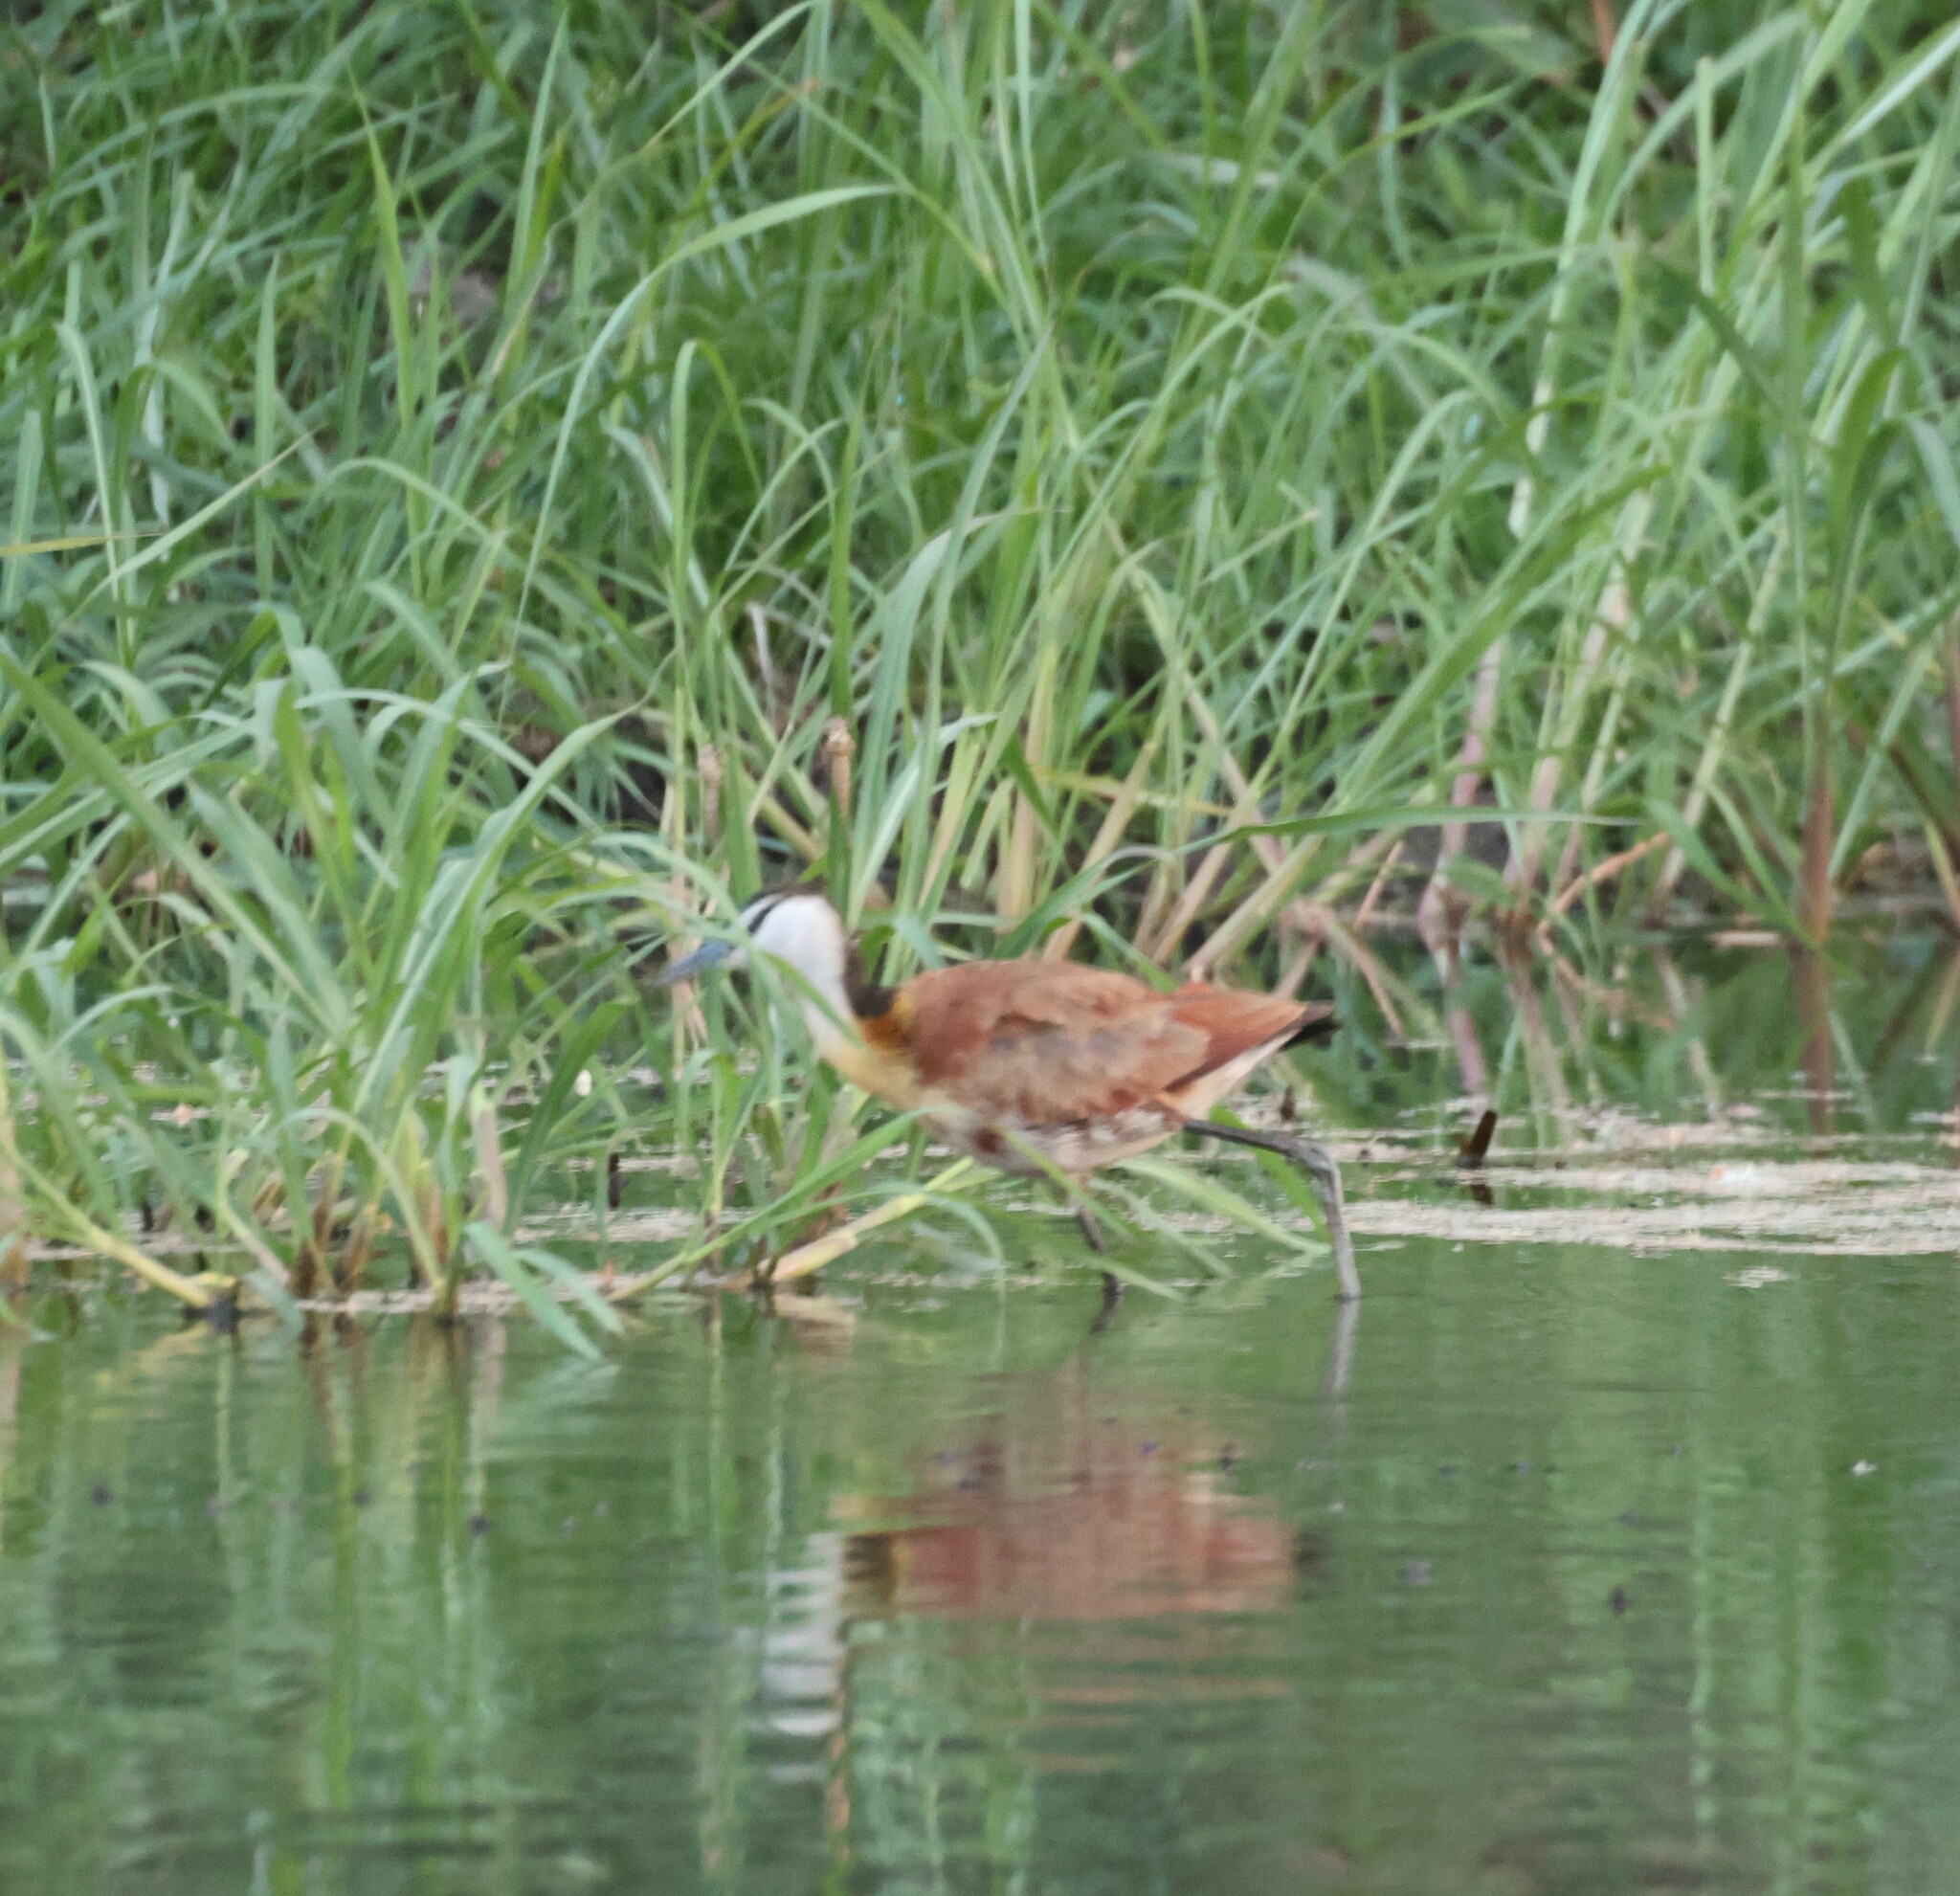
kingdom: Animalia
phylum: Chordata
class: Aves
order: Charadriiformes
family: Jacanidae
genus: Actophilornis
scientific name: Actophilornis africanus
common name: African jacana
